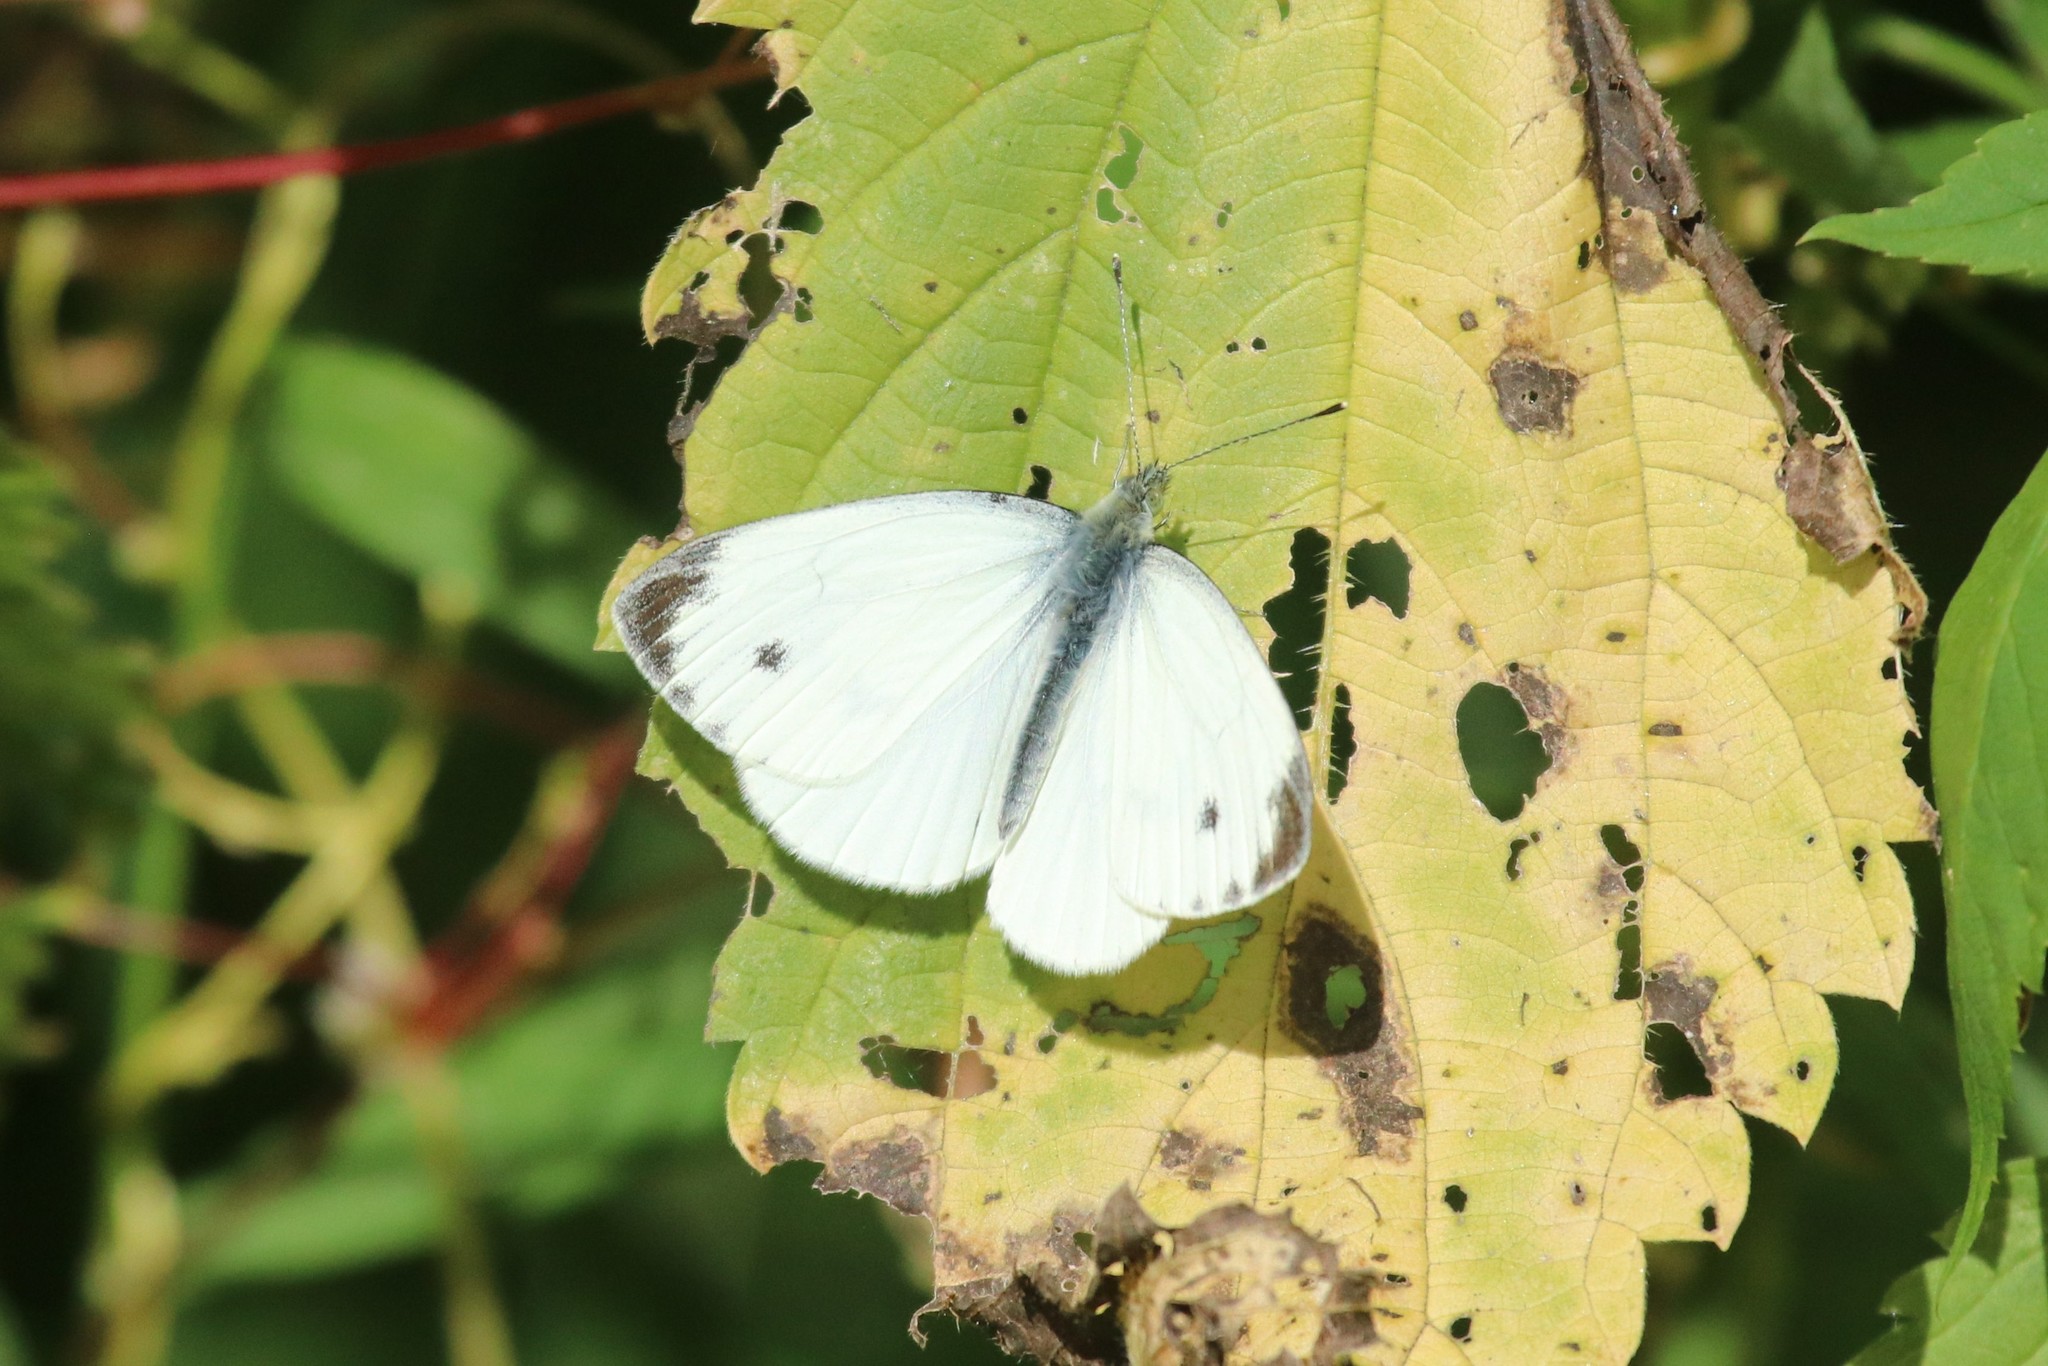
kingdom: Animalia
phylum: Arthropoda
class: Insecta
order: Lepidoptera
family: Pieridae
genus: Pieris
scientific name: Pieris napi
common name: Green-veined white
